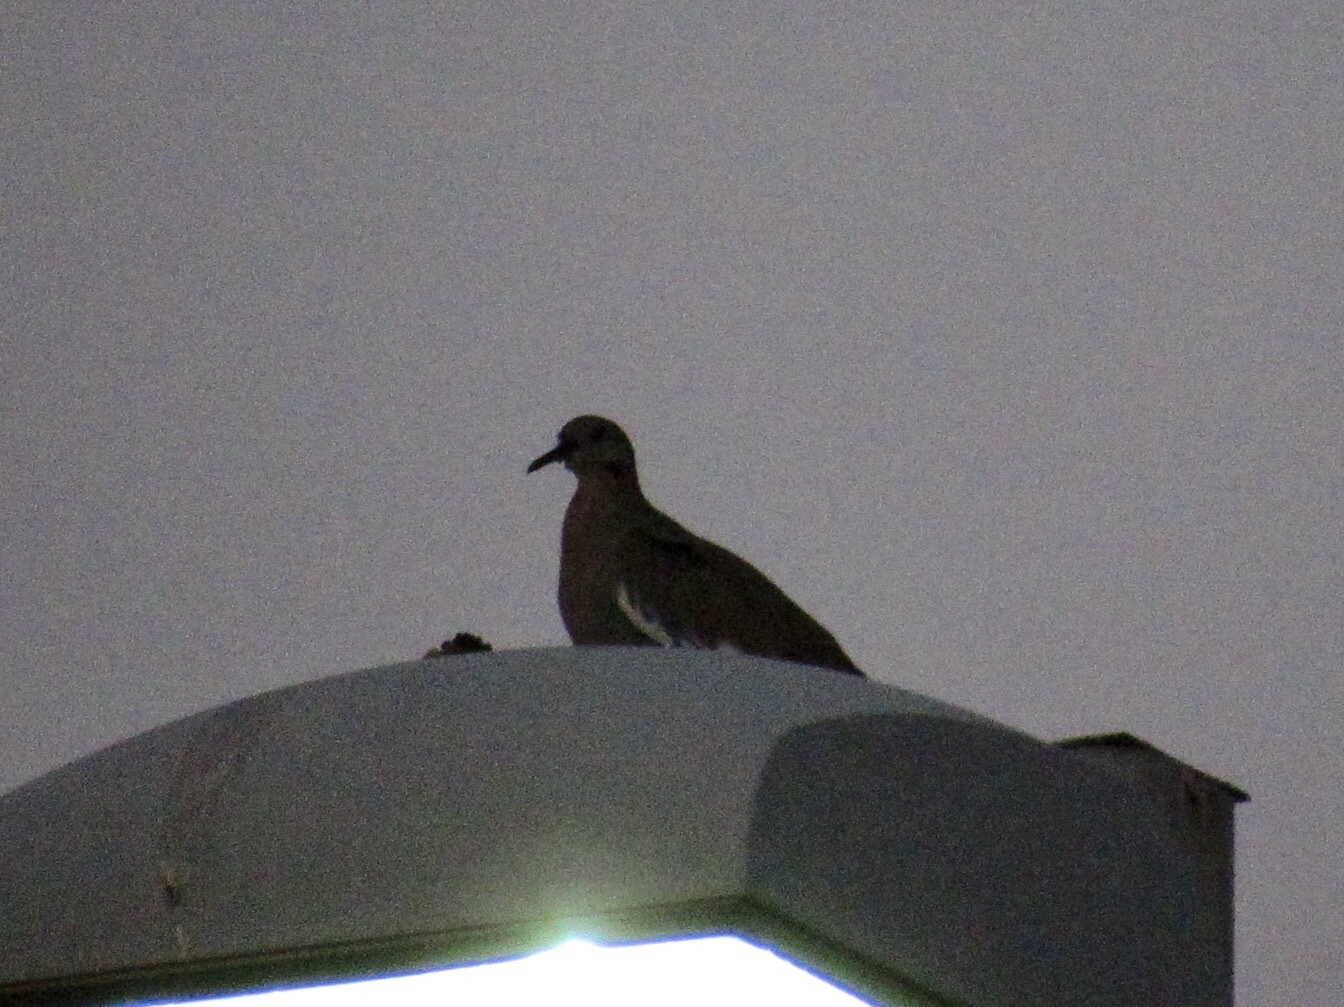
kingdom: Animalia
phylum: Chordata
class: Aves
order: Columbiformes
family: Columbidae
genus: Zenaida
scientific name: Zenaida asiatica
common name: White-winged dove
